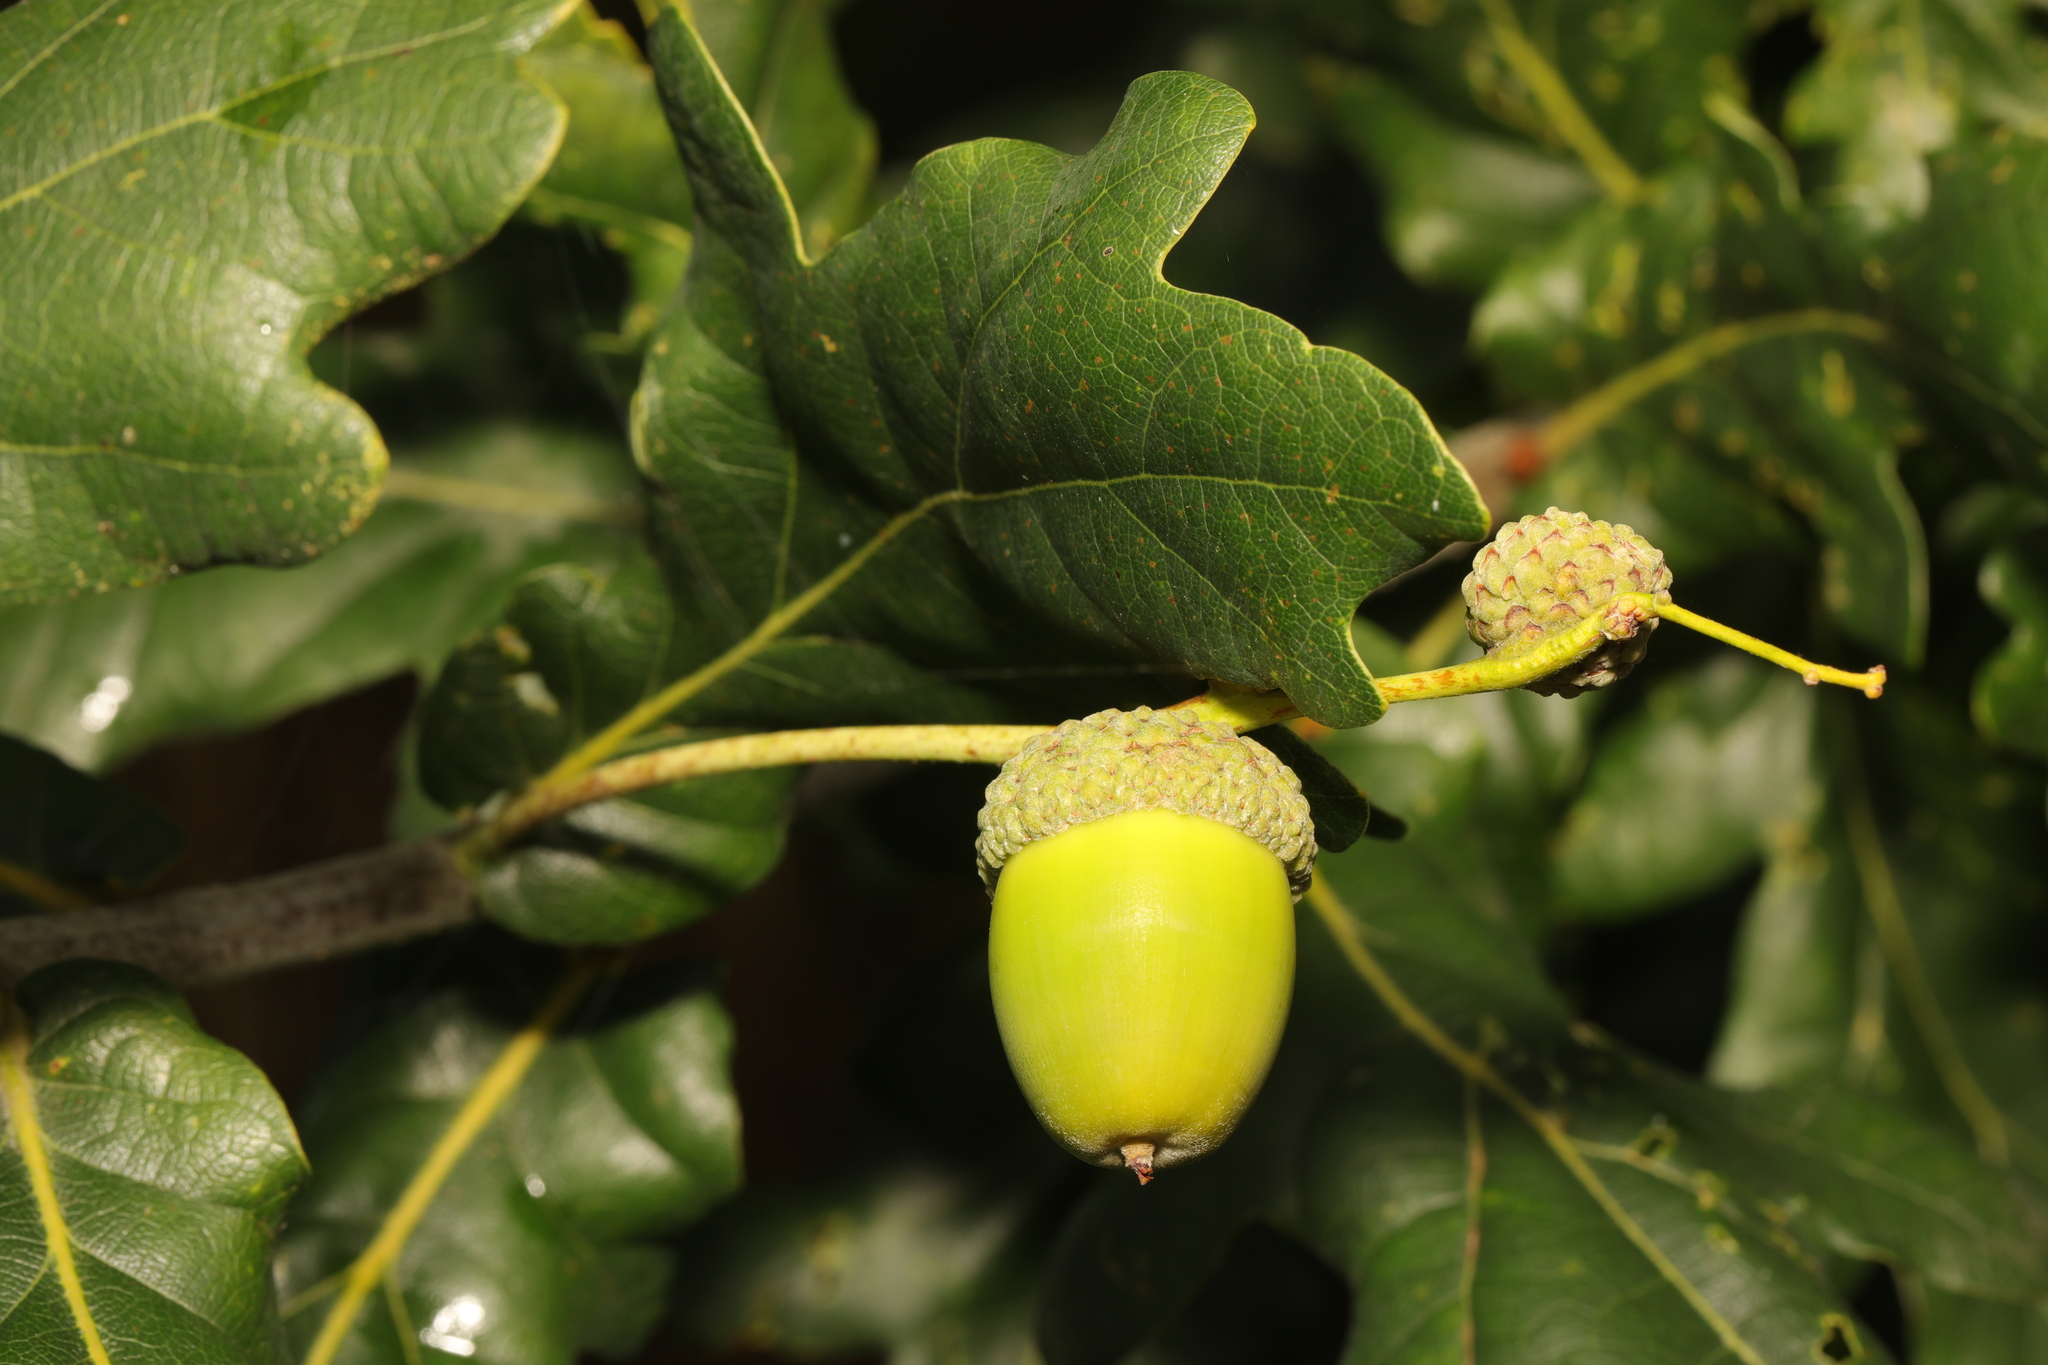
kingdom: Plantae
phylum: Tracheophyta
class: Magnoliopsida
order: Fagales
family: Fagaceae
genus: Quercus
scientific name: Quercus robur
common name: Pedunculate oak
